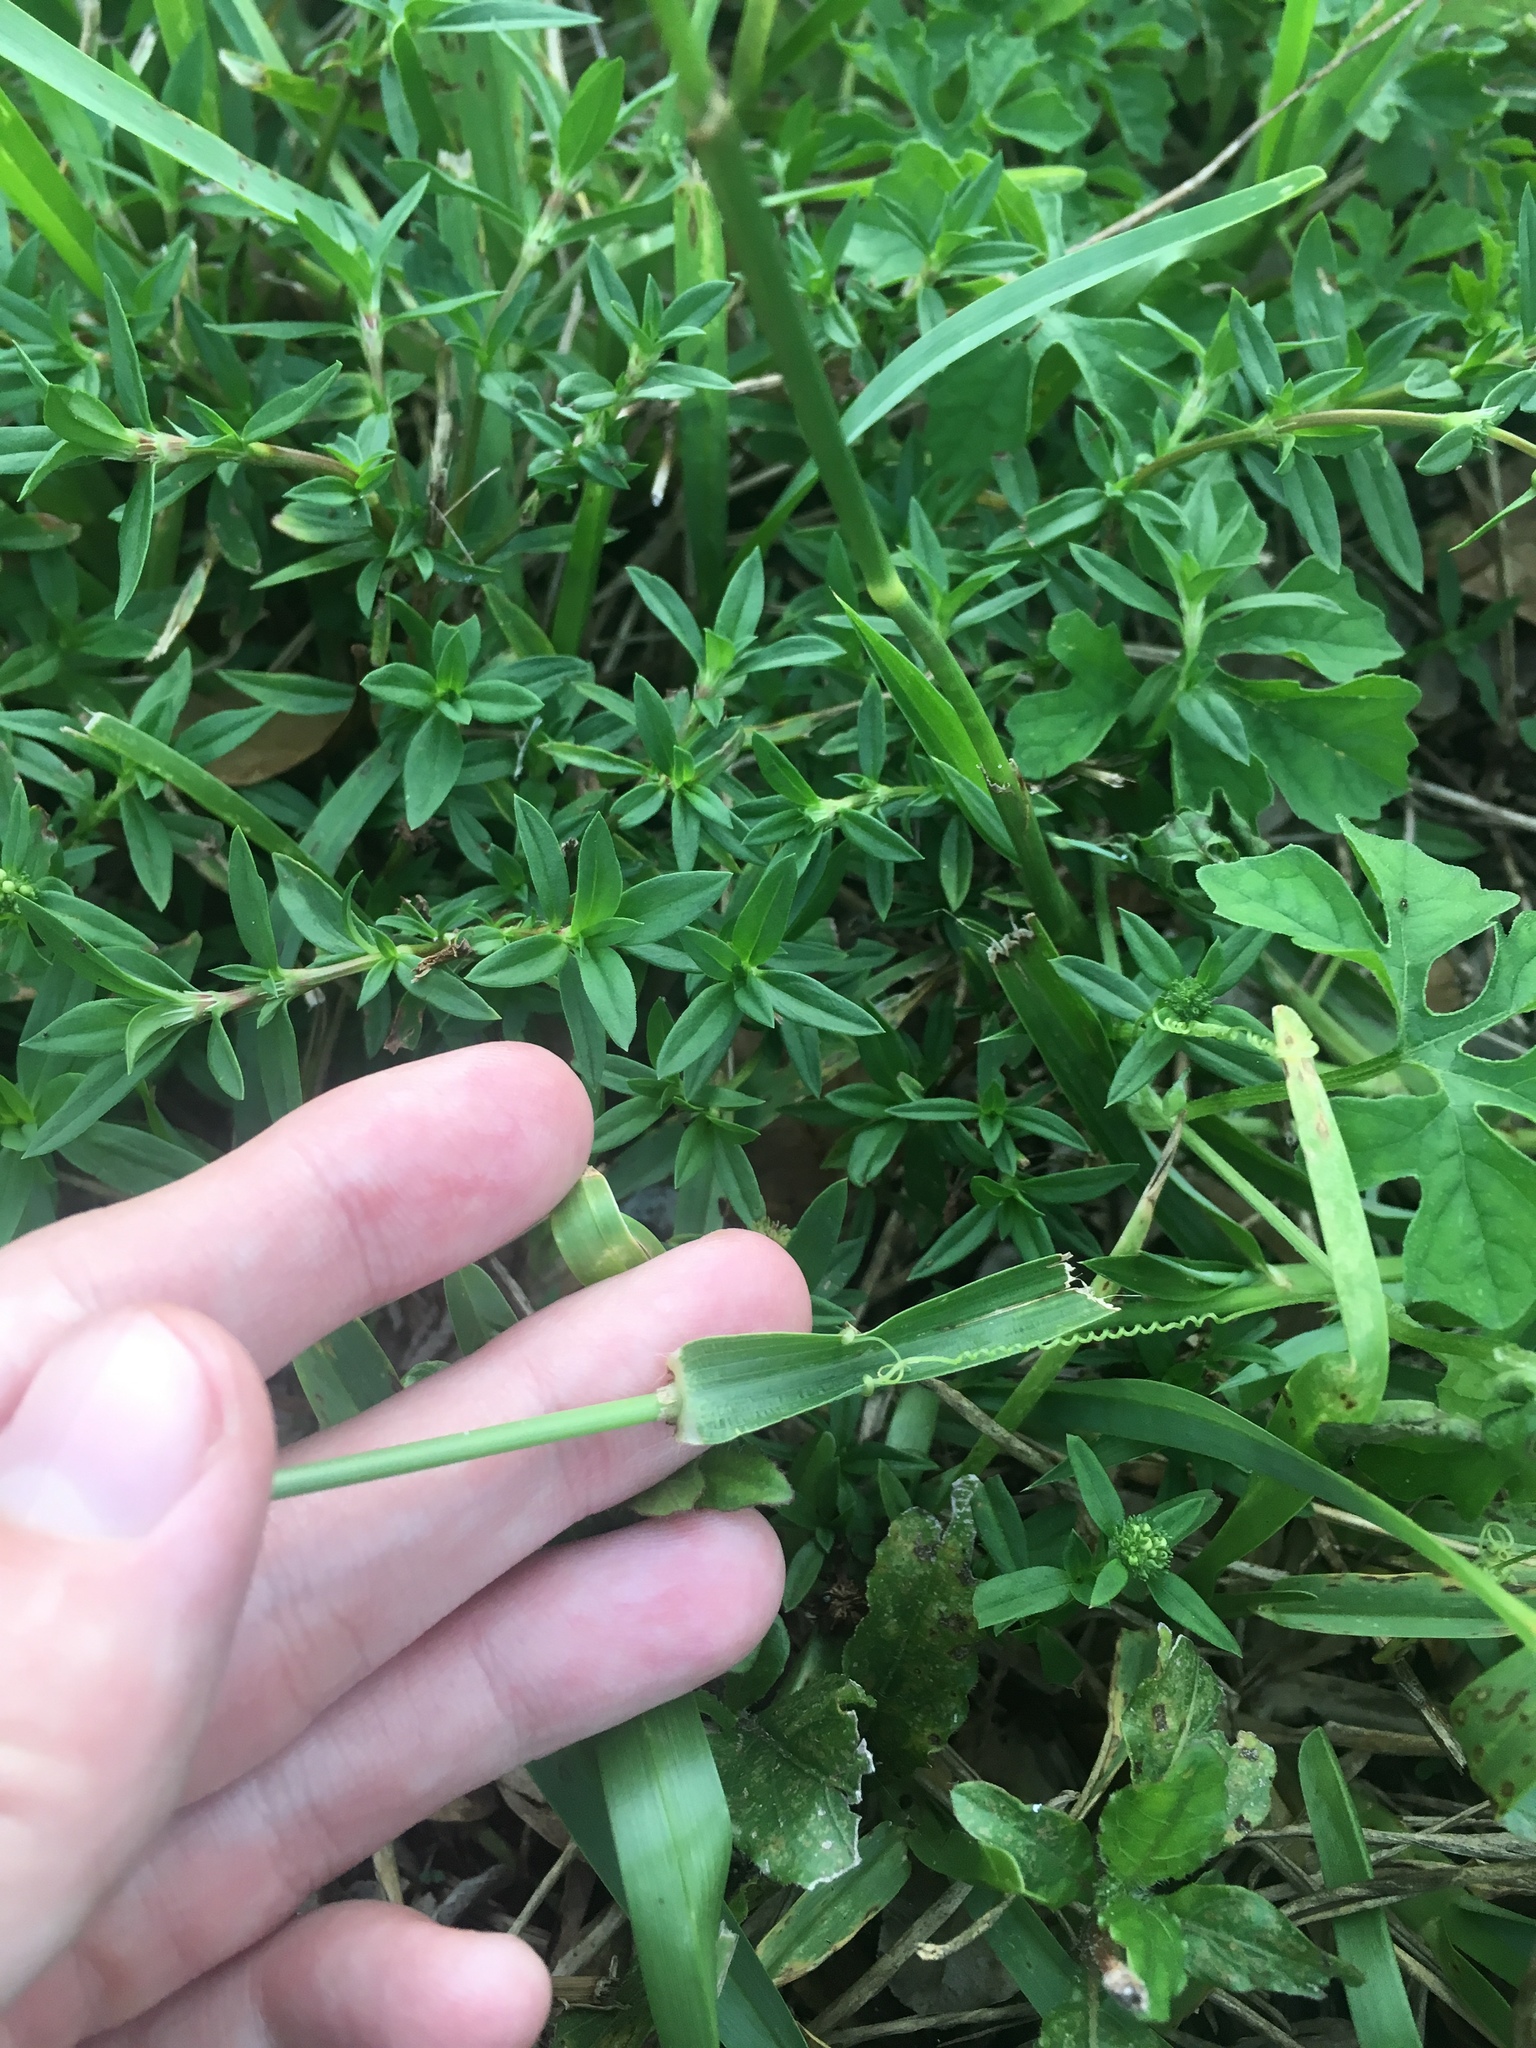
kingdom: Plantae
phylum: Tracheophyta
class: Liliopsida
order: Poales
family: Poaceae
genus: Dactyloctenium
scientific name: Dactyloctenium aegyptium
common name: Egyptian grass
